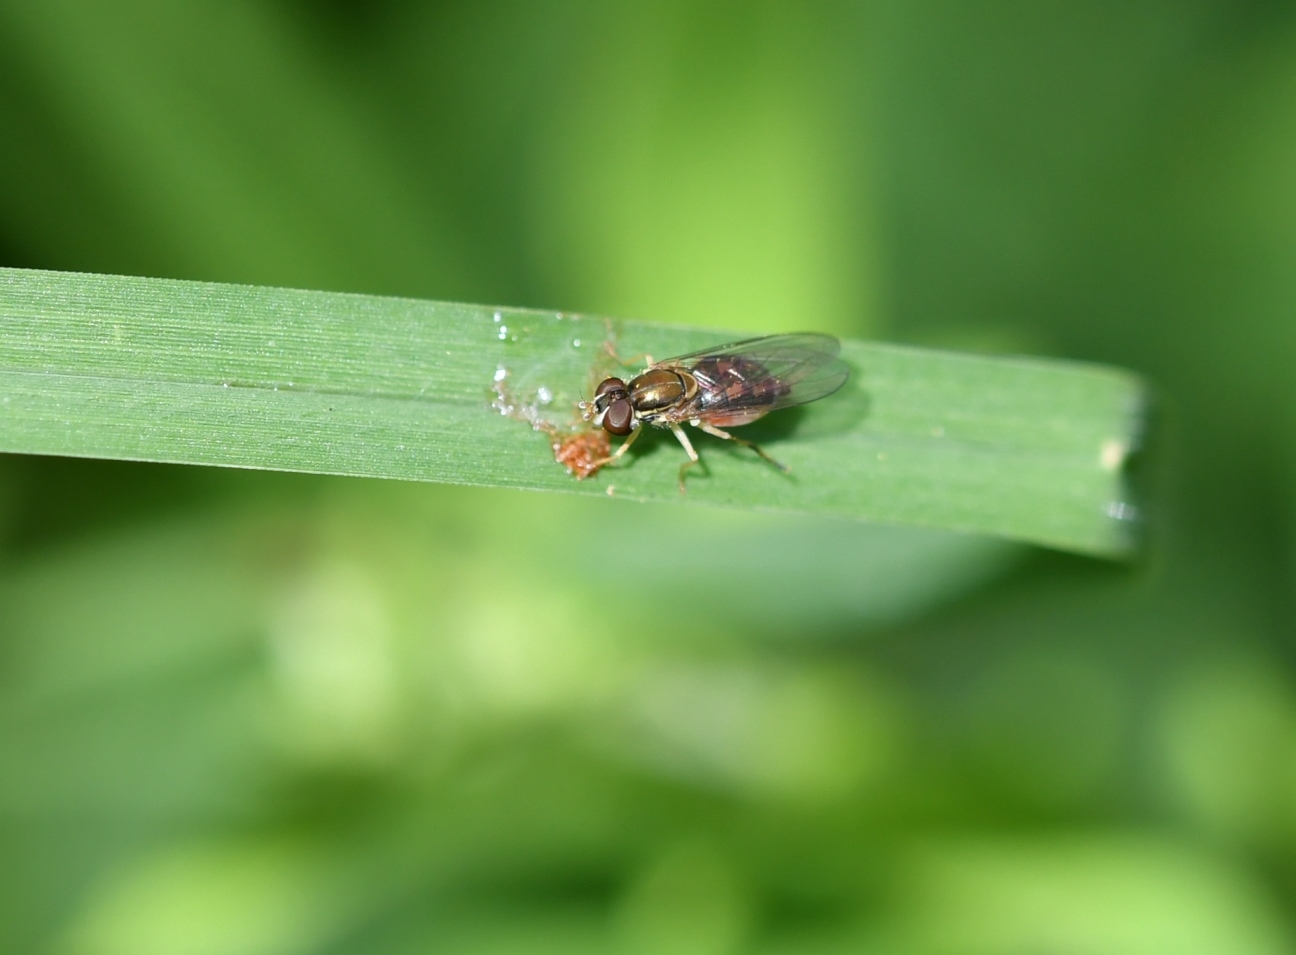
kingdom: Animalia
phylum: Arthropoda
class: Insecta
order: Diptera
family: Syrphidae
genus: Toxomerus
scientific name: Toxomerus marginatus
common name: Syrphid fly
